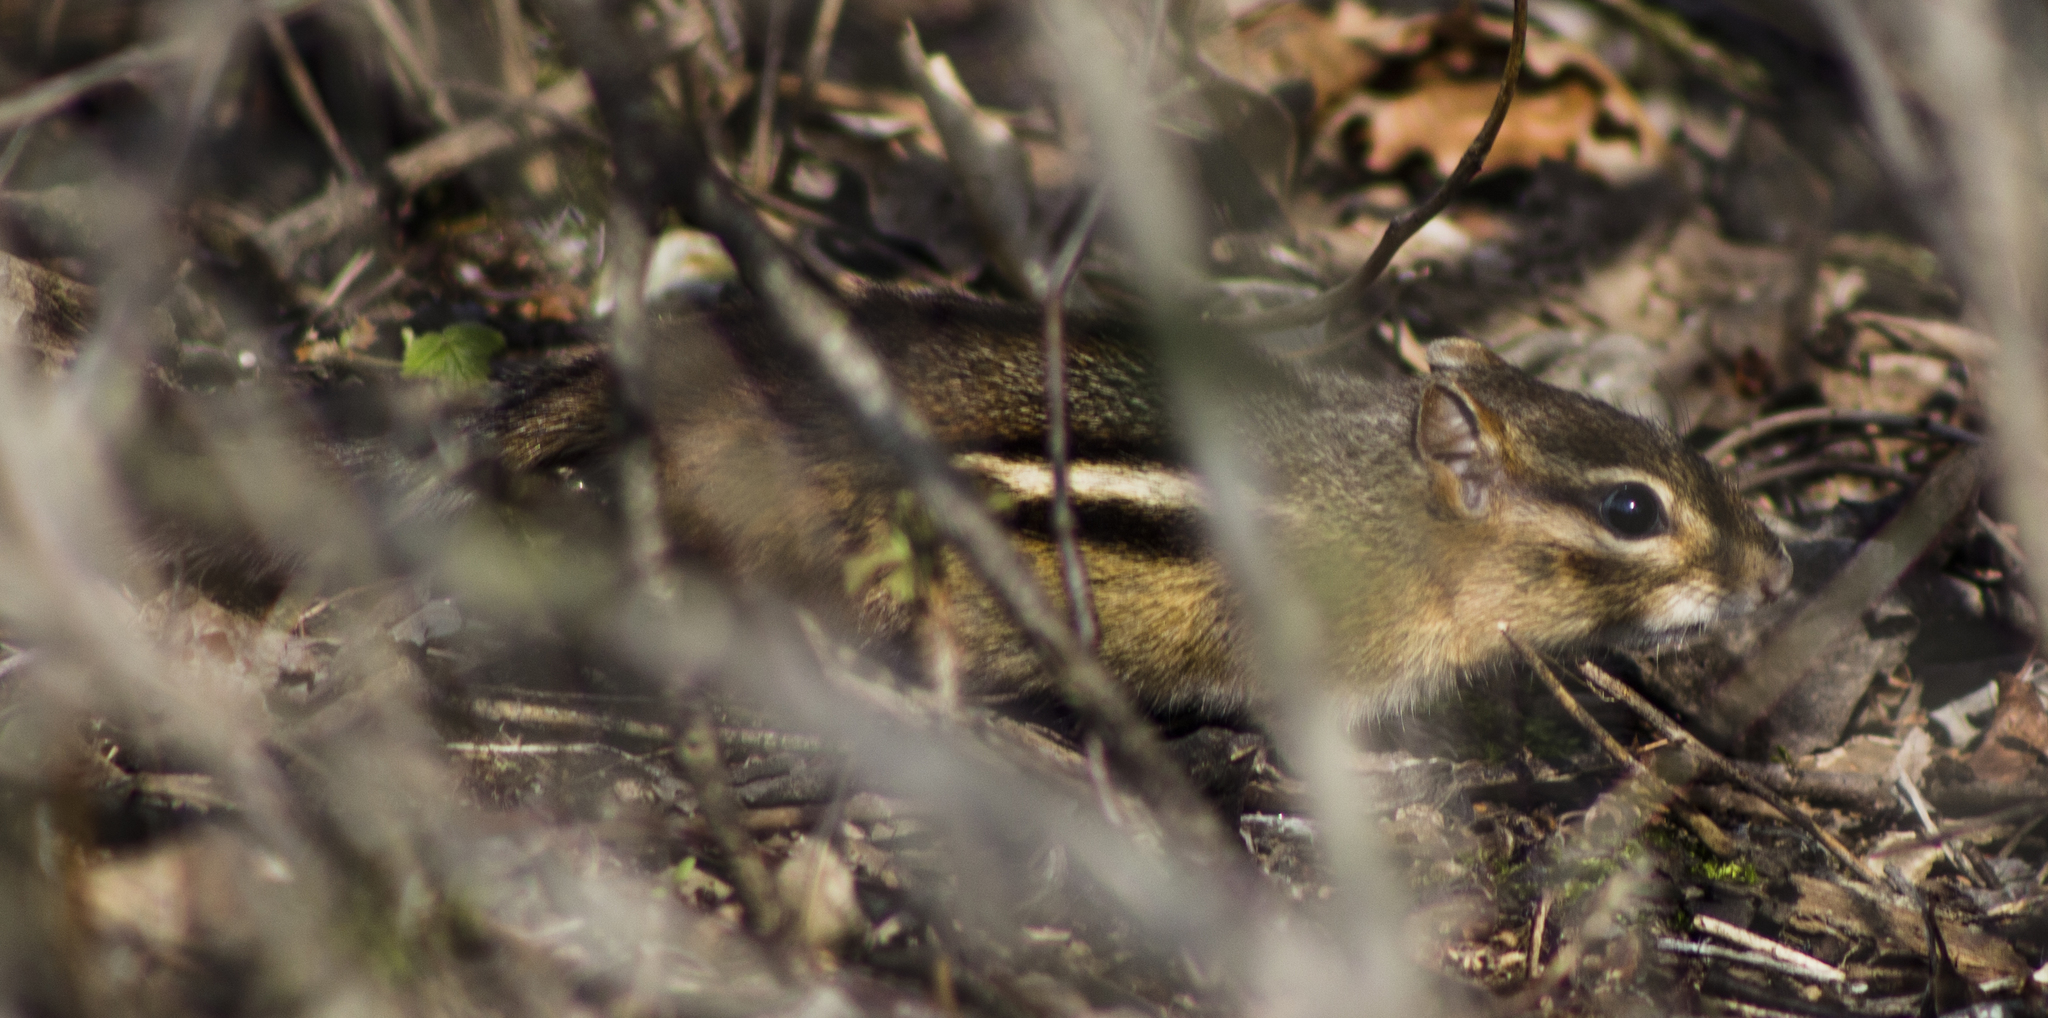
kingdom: Animalia
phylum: Chordata
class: Mammalia
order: Rodentia
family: Sciuridae
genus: Tamias
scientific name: Tamias striatus
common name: Eastern chipmunk
